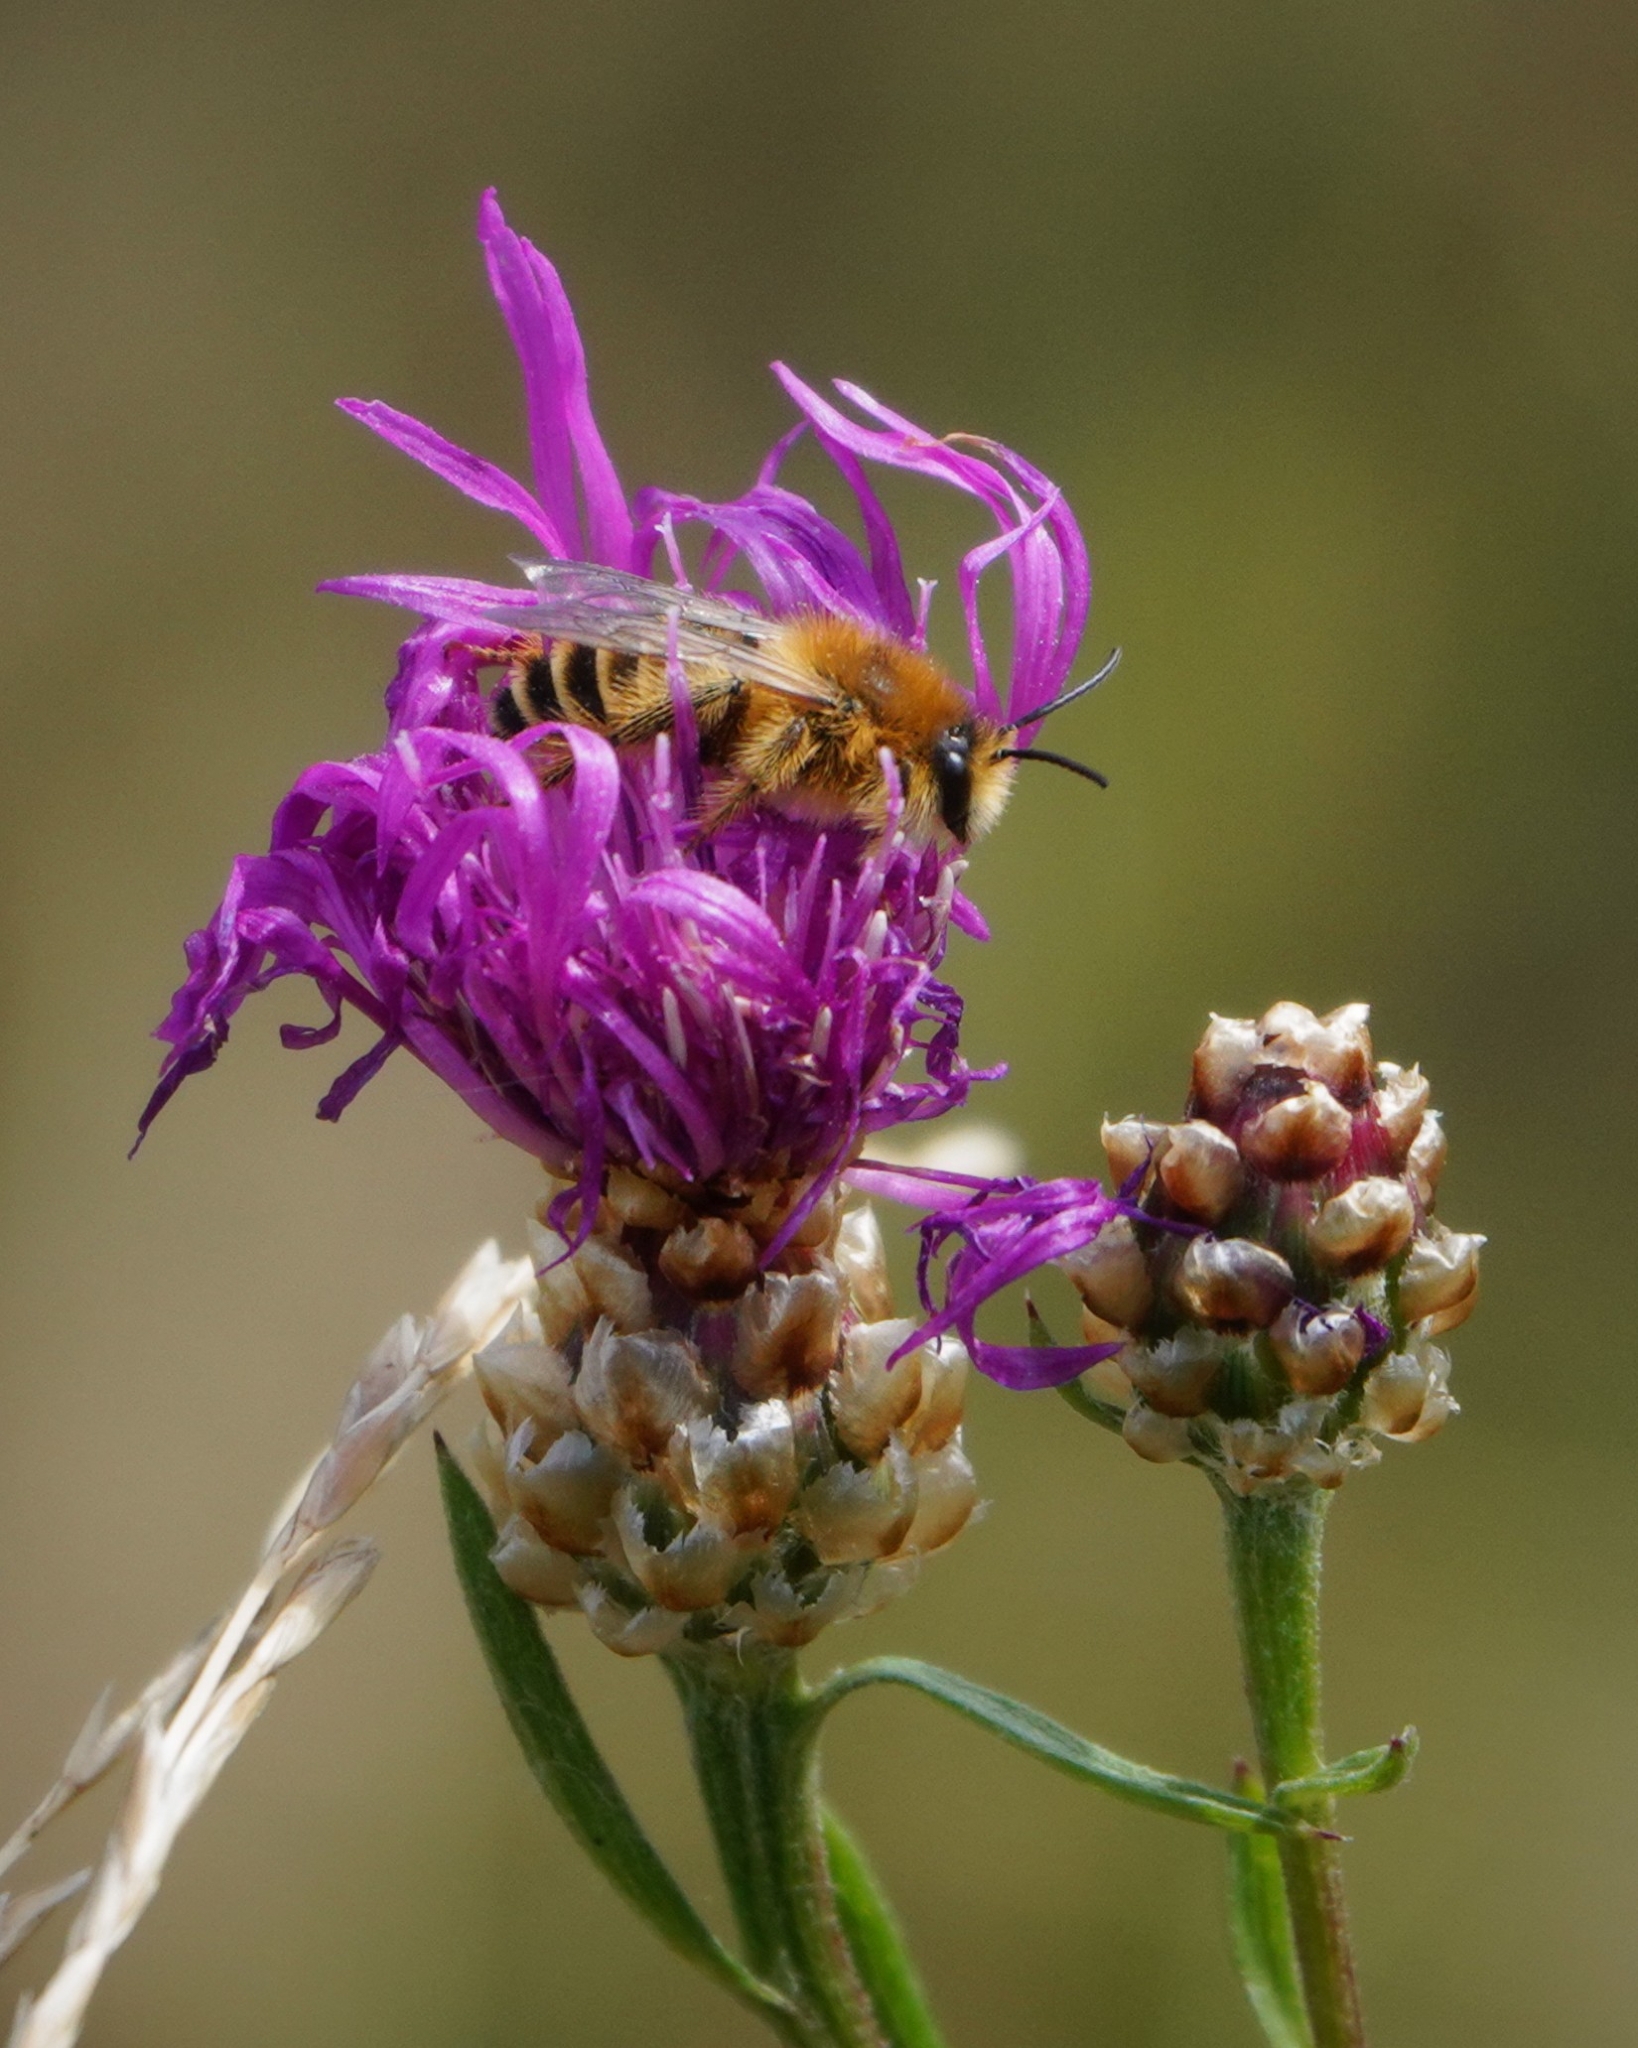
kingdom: Animalia
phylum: Arthropoda
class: Insecta
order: Hymenoptera
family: Melittidae
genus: Dasypoda
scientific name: Dasypoda hirtipes
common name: Pantaloon bee
